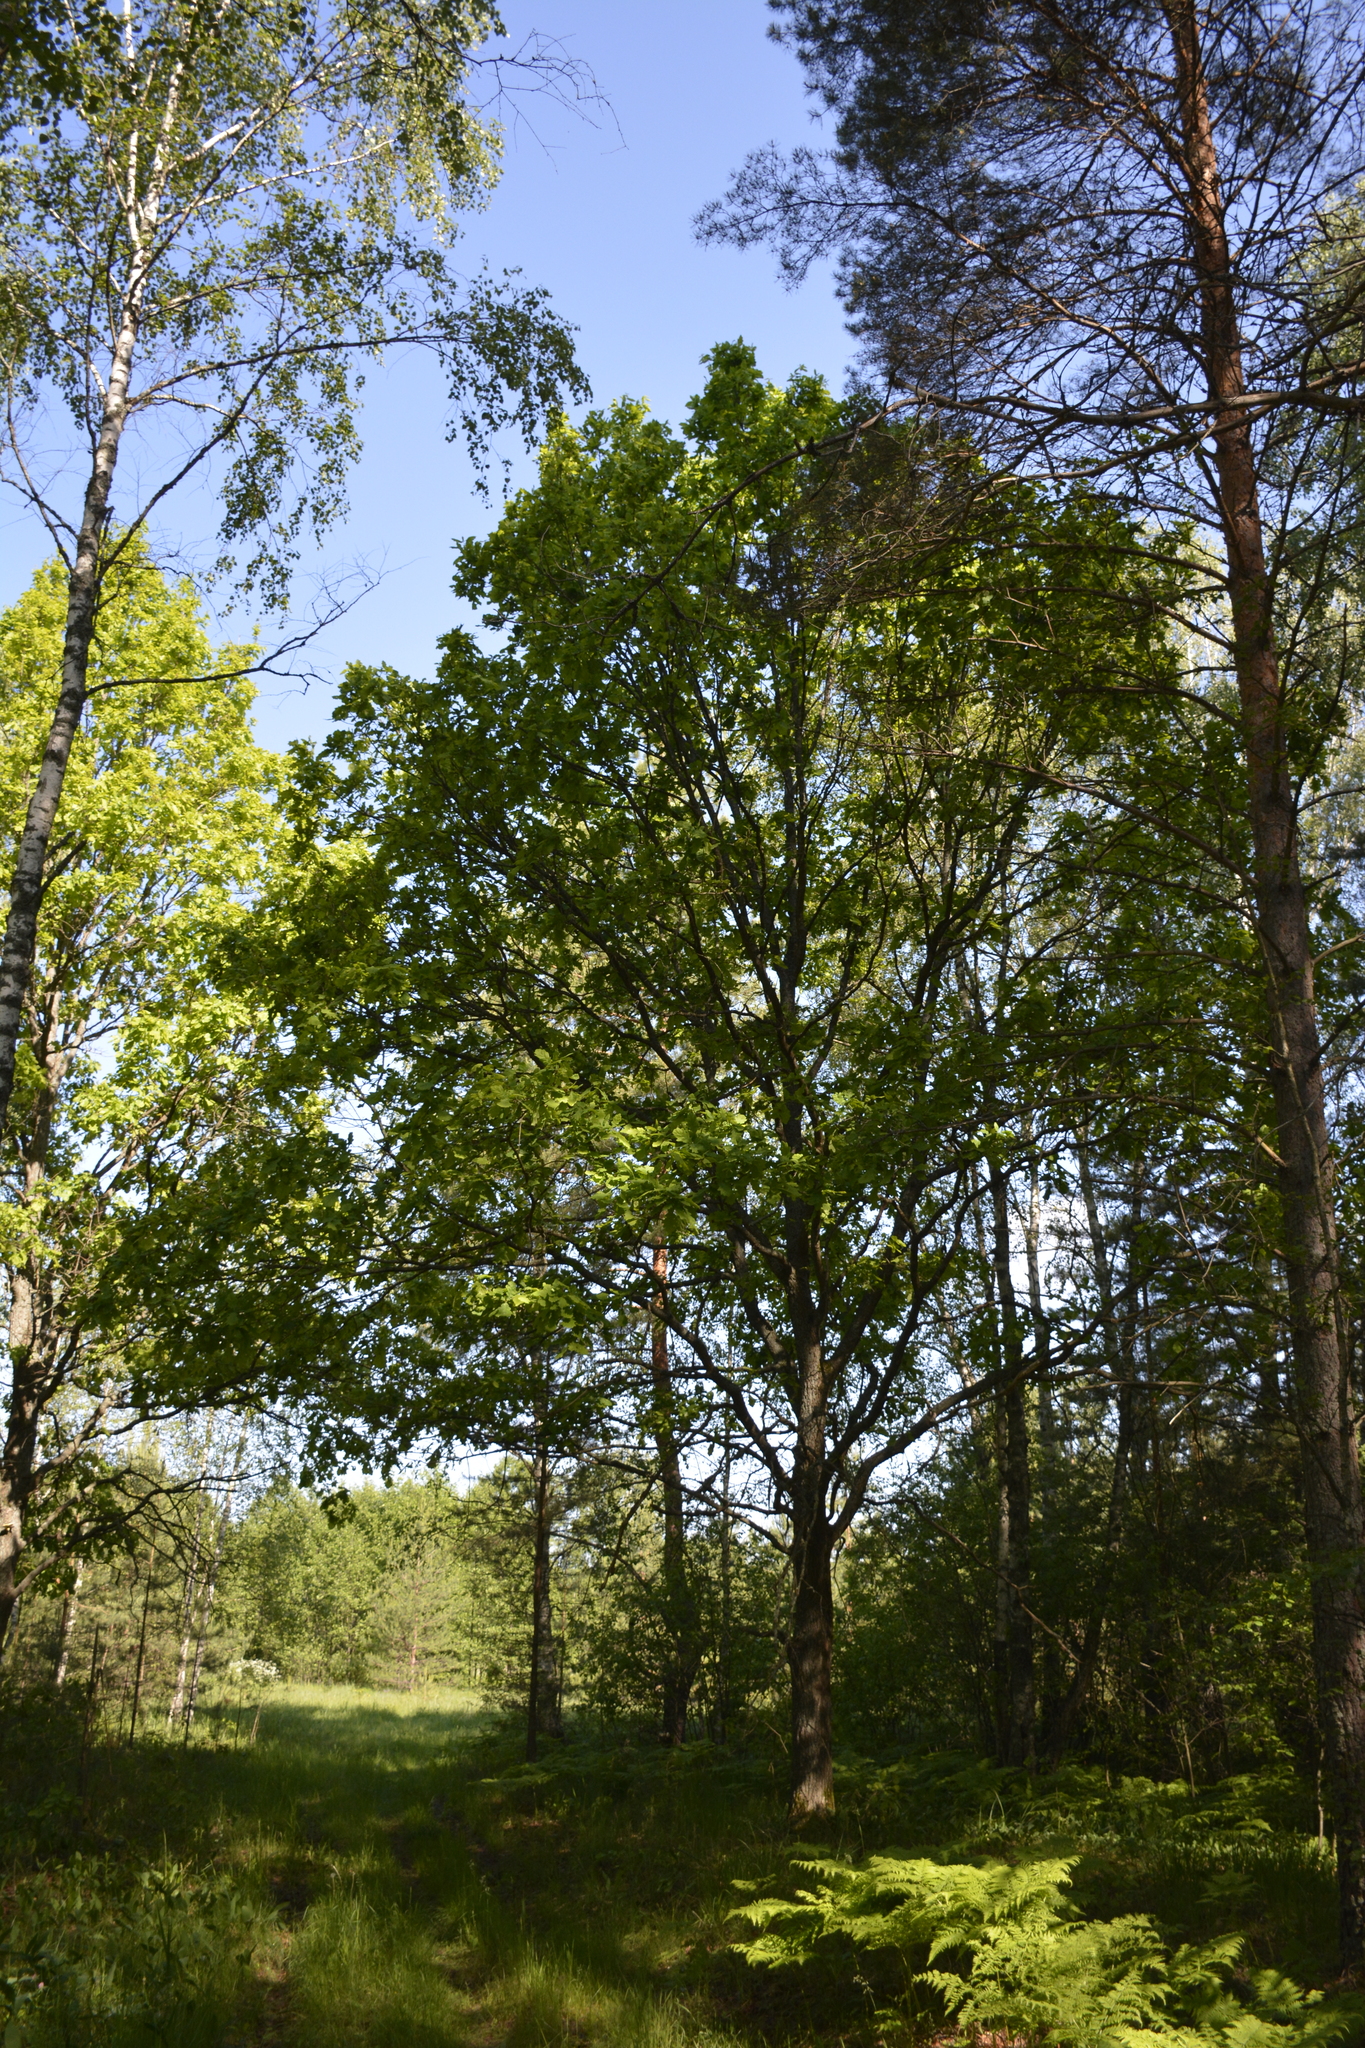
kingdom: Plantae
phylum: Tracheophyta
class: Magnoliopsida
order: Fagales
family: Fagaceae
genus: Quercus
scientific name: Quercus robur
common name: Pedunculate oak
